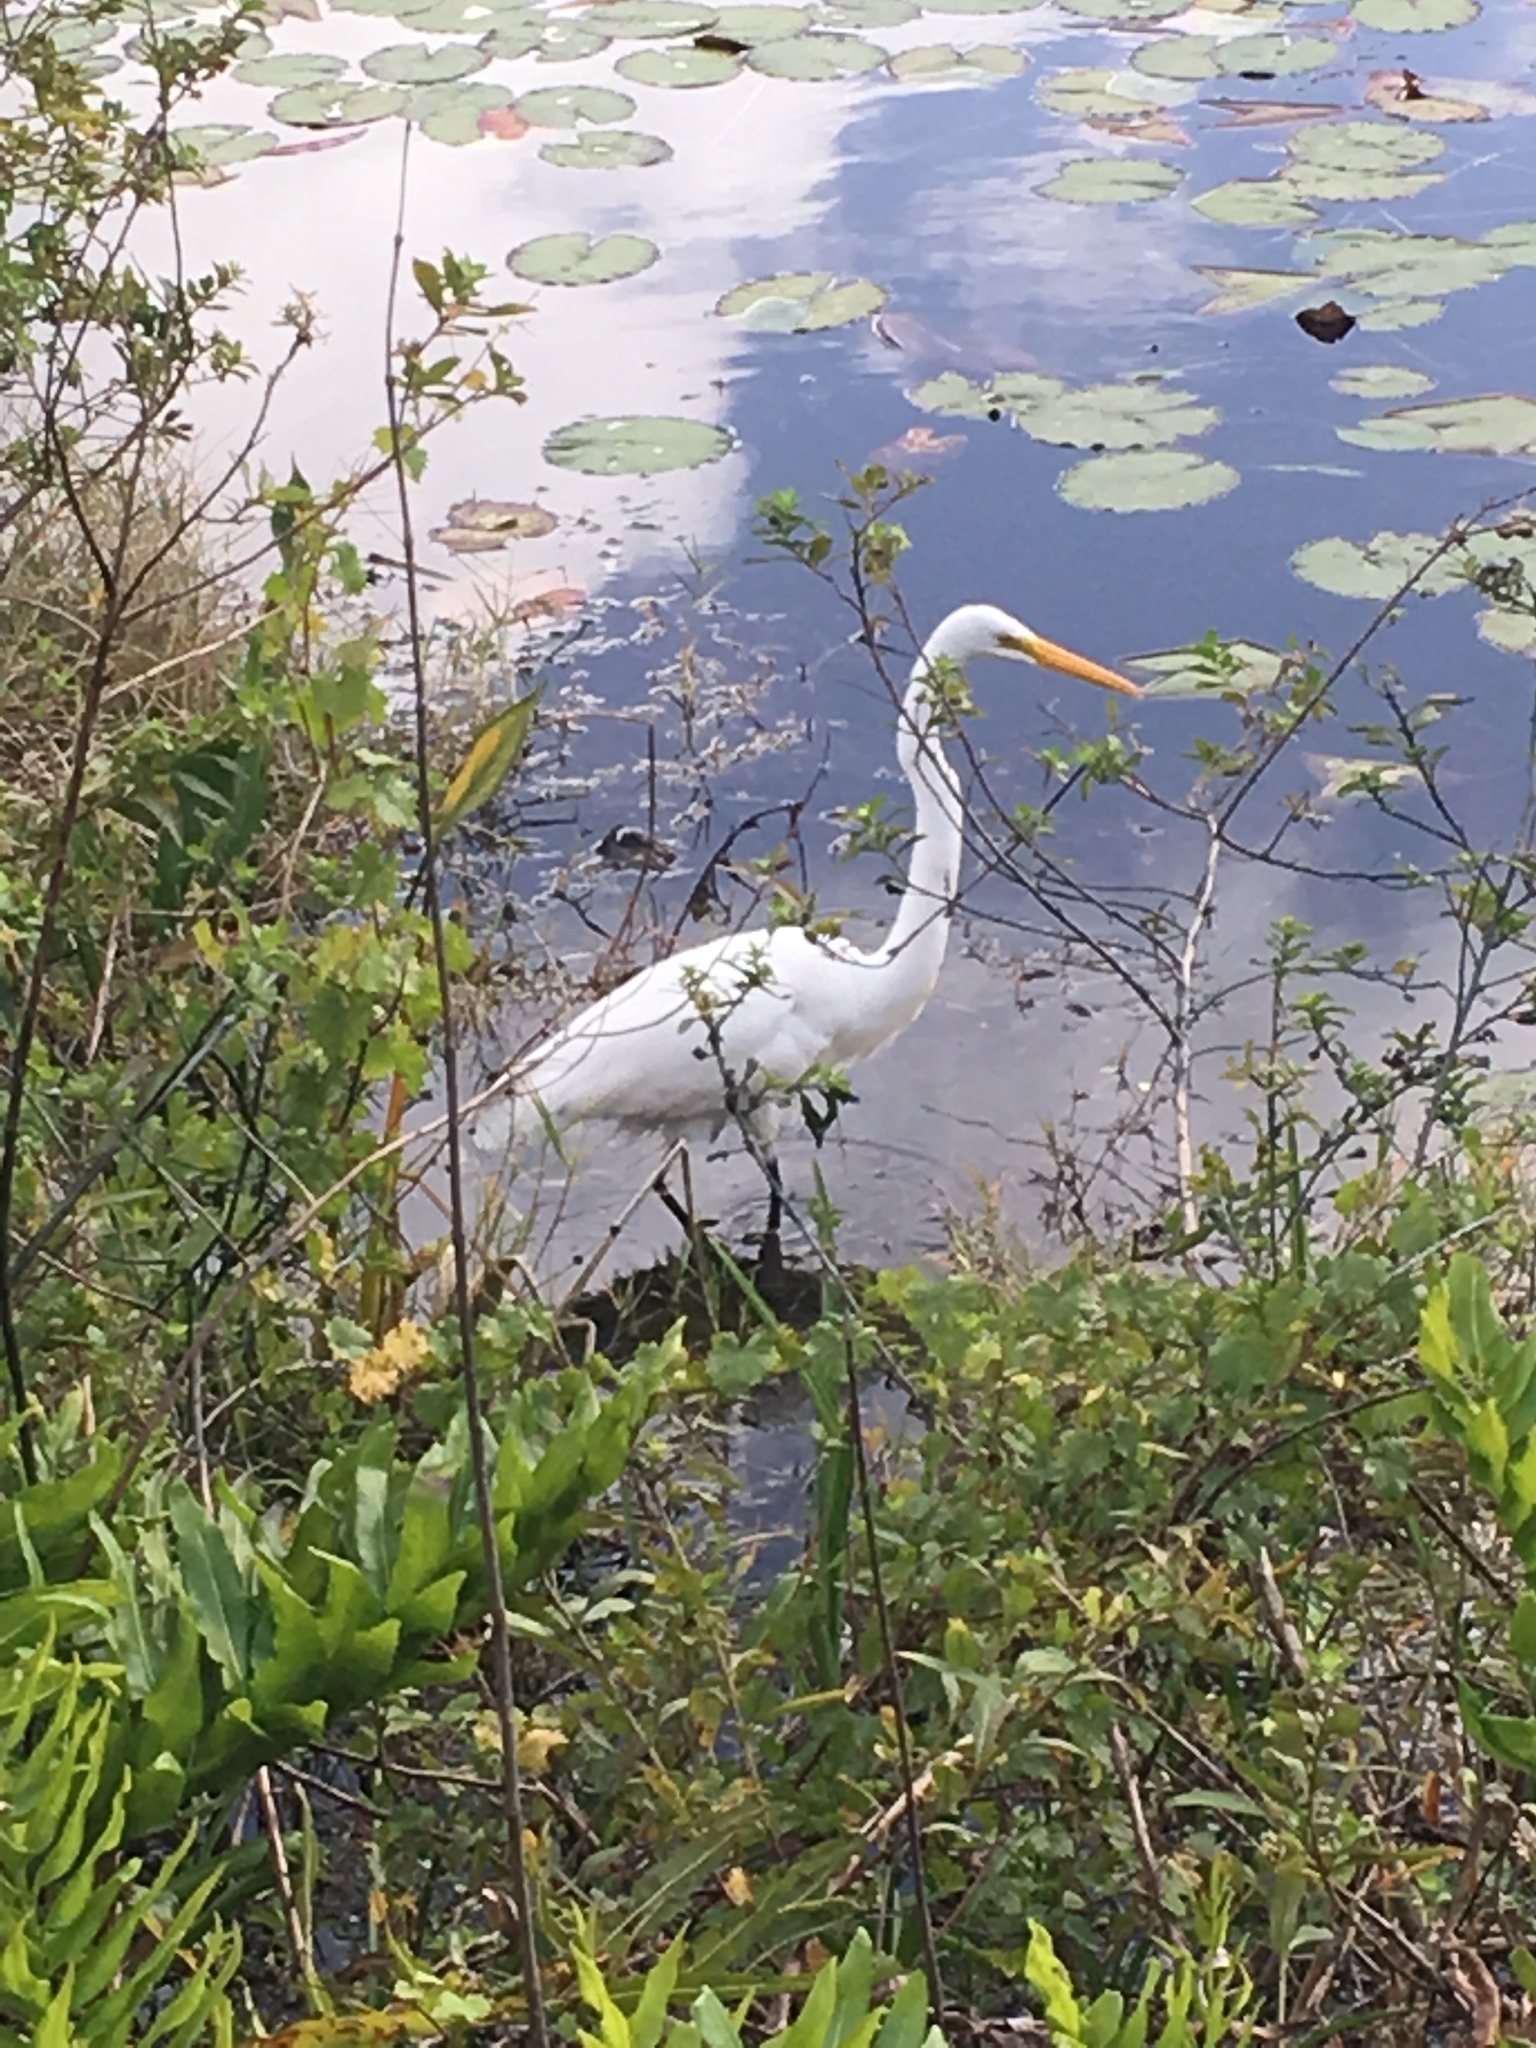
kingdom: Animalia
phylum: Chordata
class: Aves
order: Pelecaniformes
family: Ardeidae
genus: Ardea
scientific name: Ardea alba
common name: Great egret
